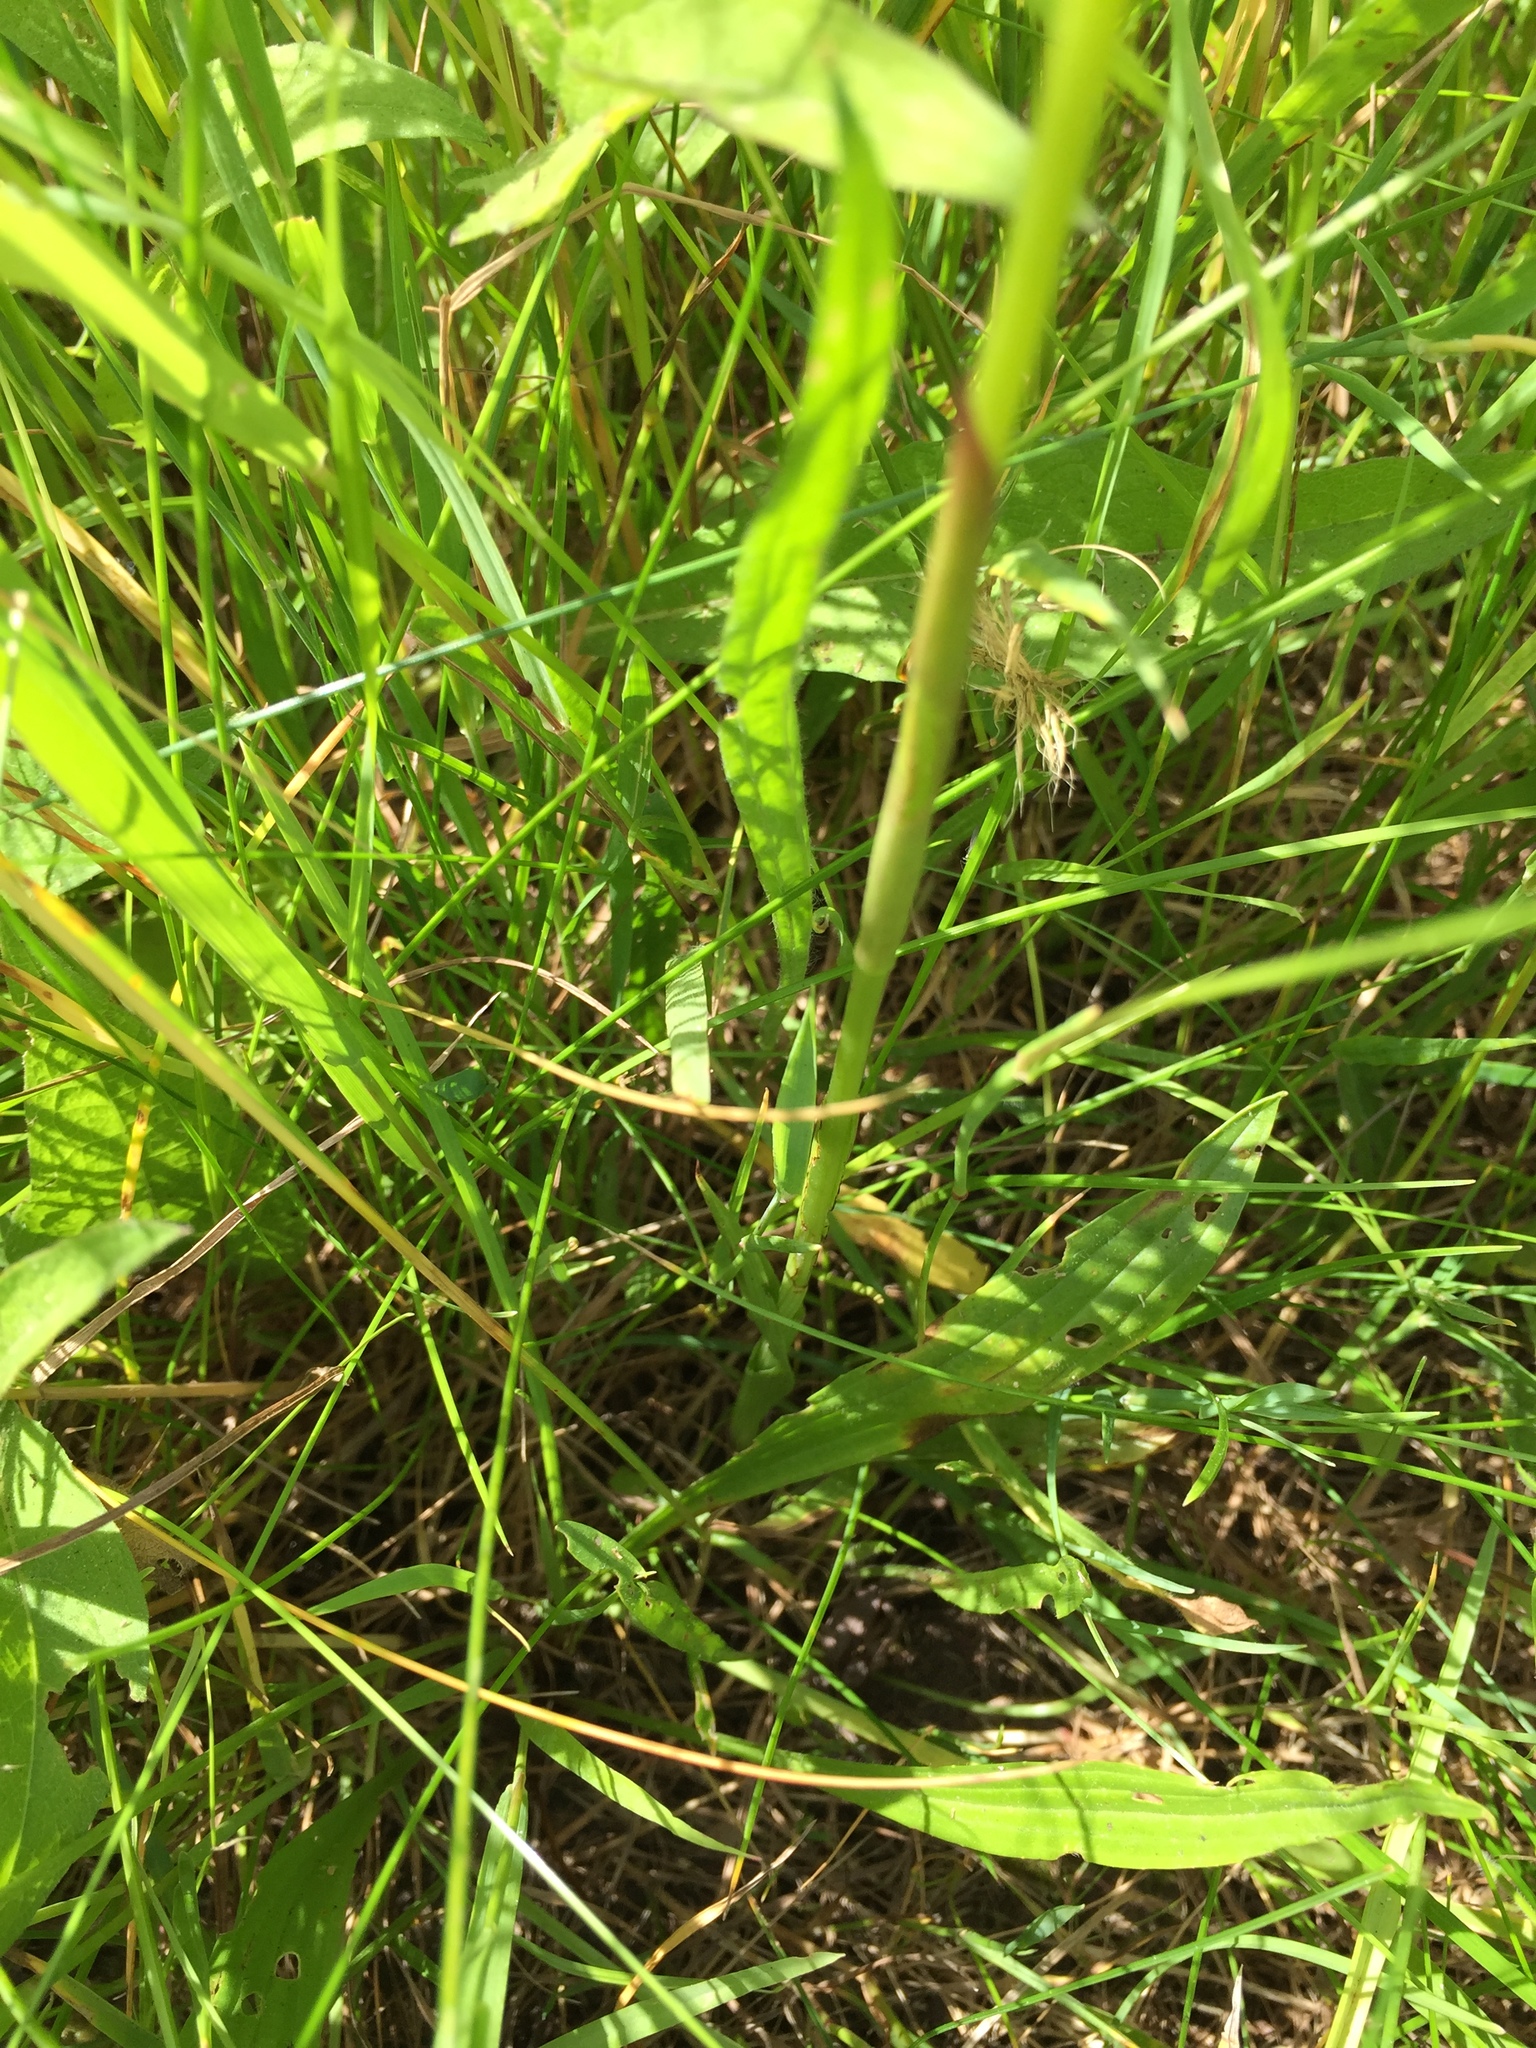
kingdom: Plantae
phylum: Tracheophyta
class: Liliopsida
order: Asparagales
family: Orchidaceae
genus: Anacamptis
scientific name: Anacamptis pyramidalis
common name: Pyramidal orchid
